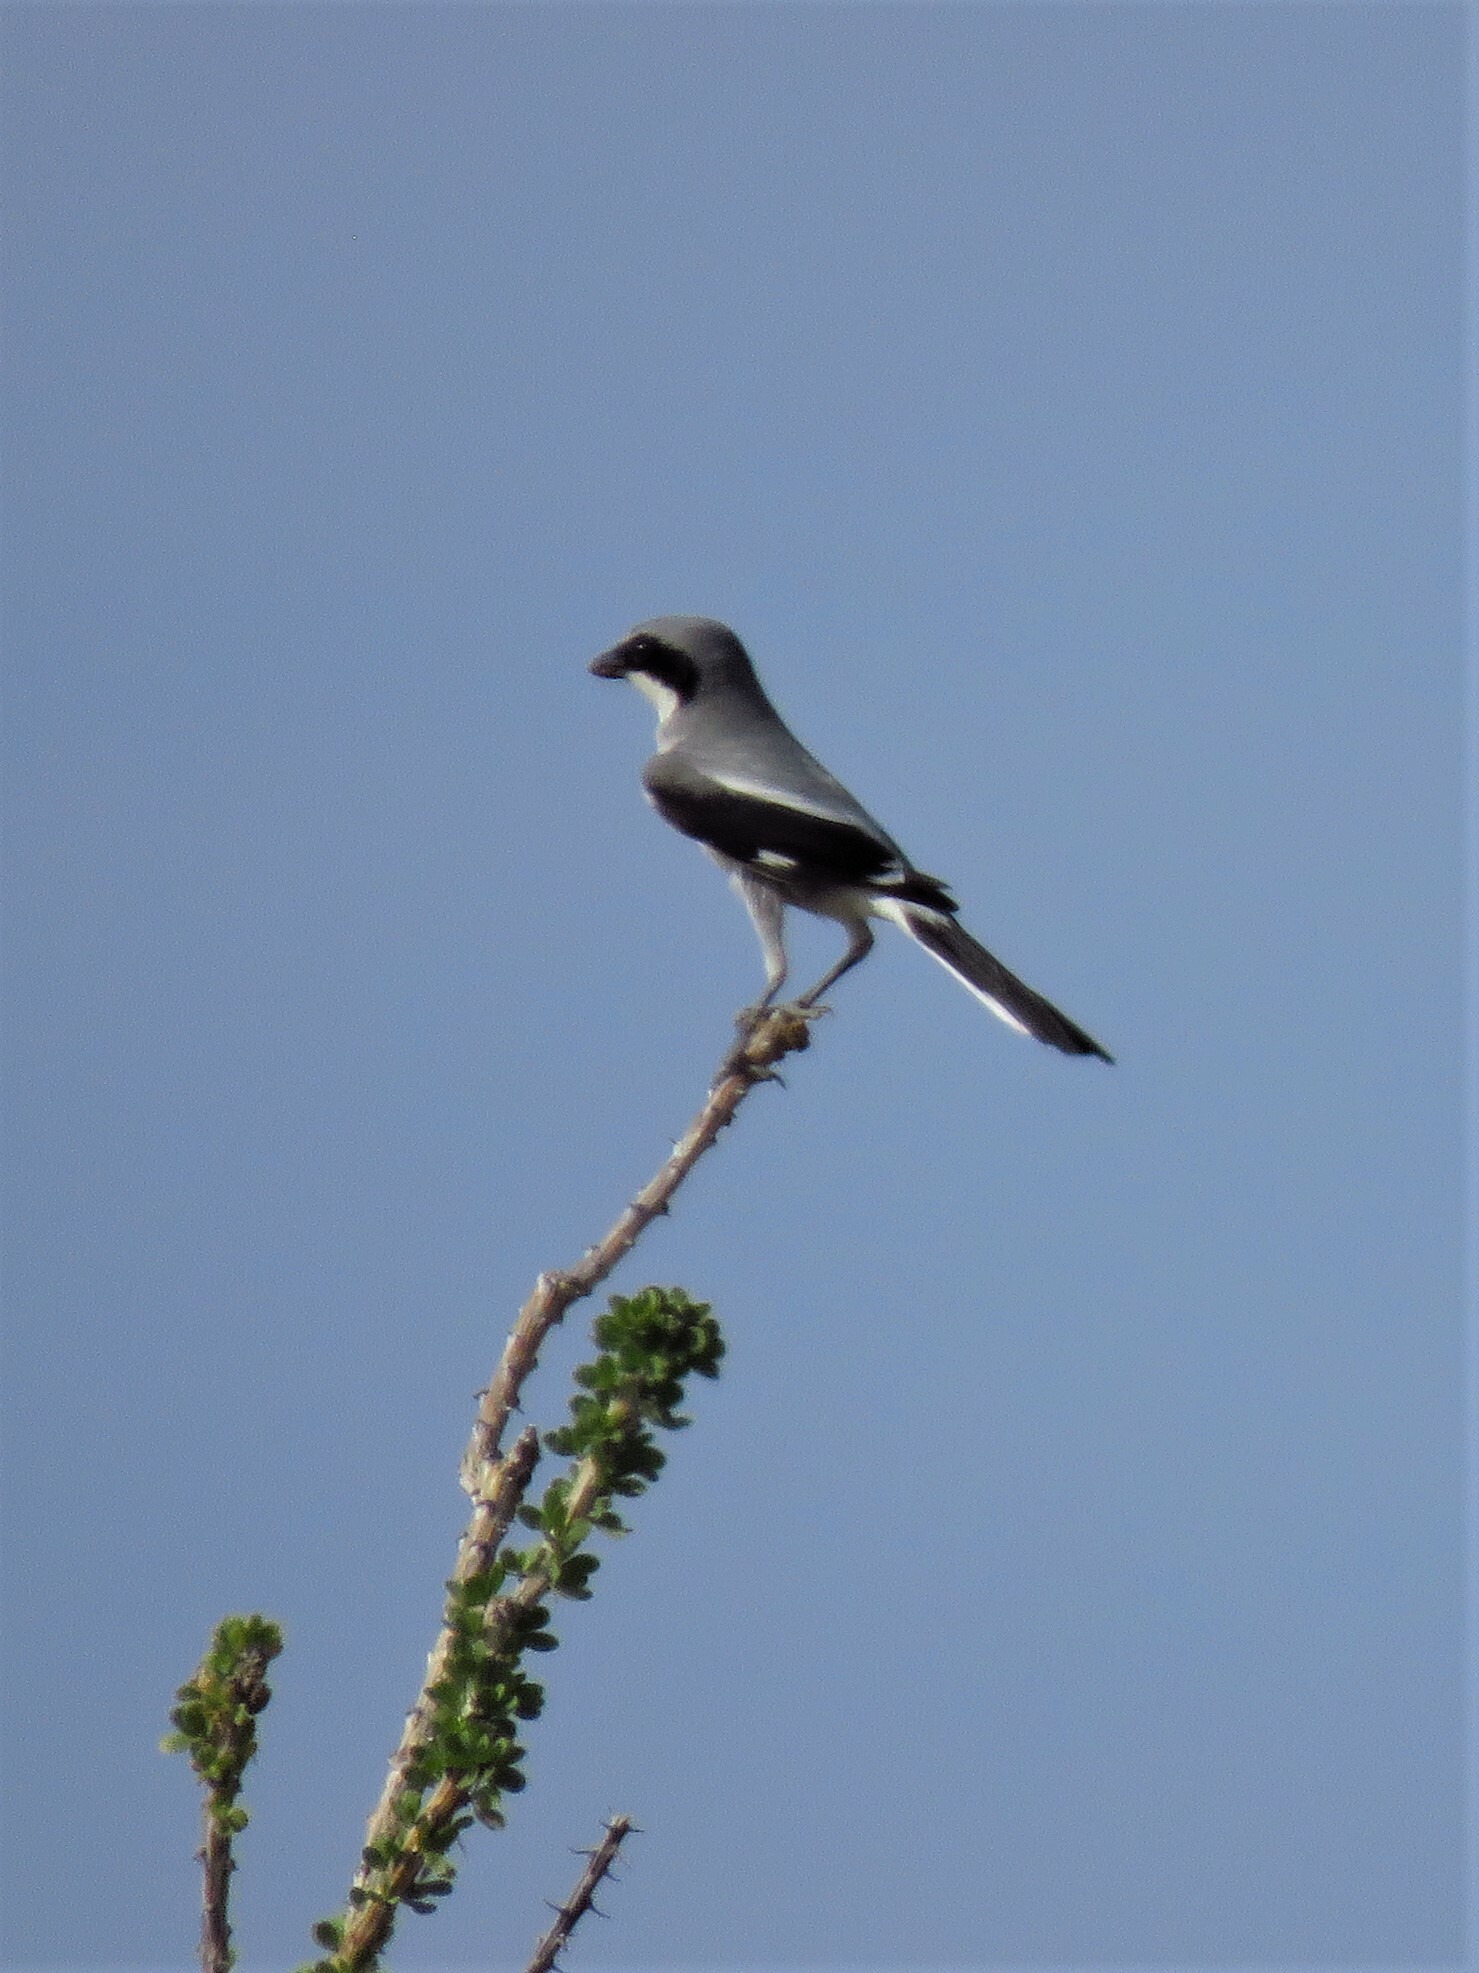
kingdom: Animalia
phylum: Chordata
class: Aves
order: Passeriformes
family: Laniidae
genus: Lanius
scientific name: Lanius ludovicianus
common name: Loggerhead shrike
